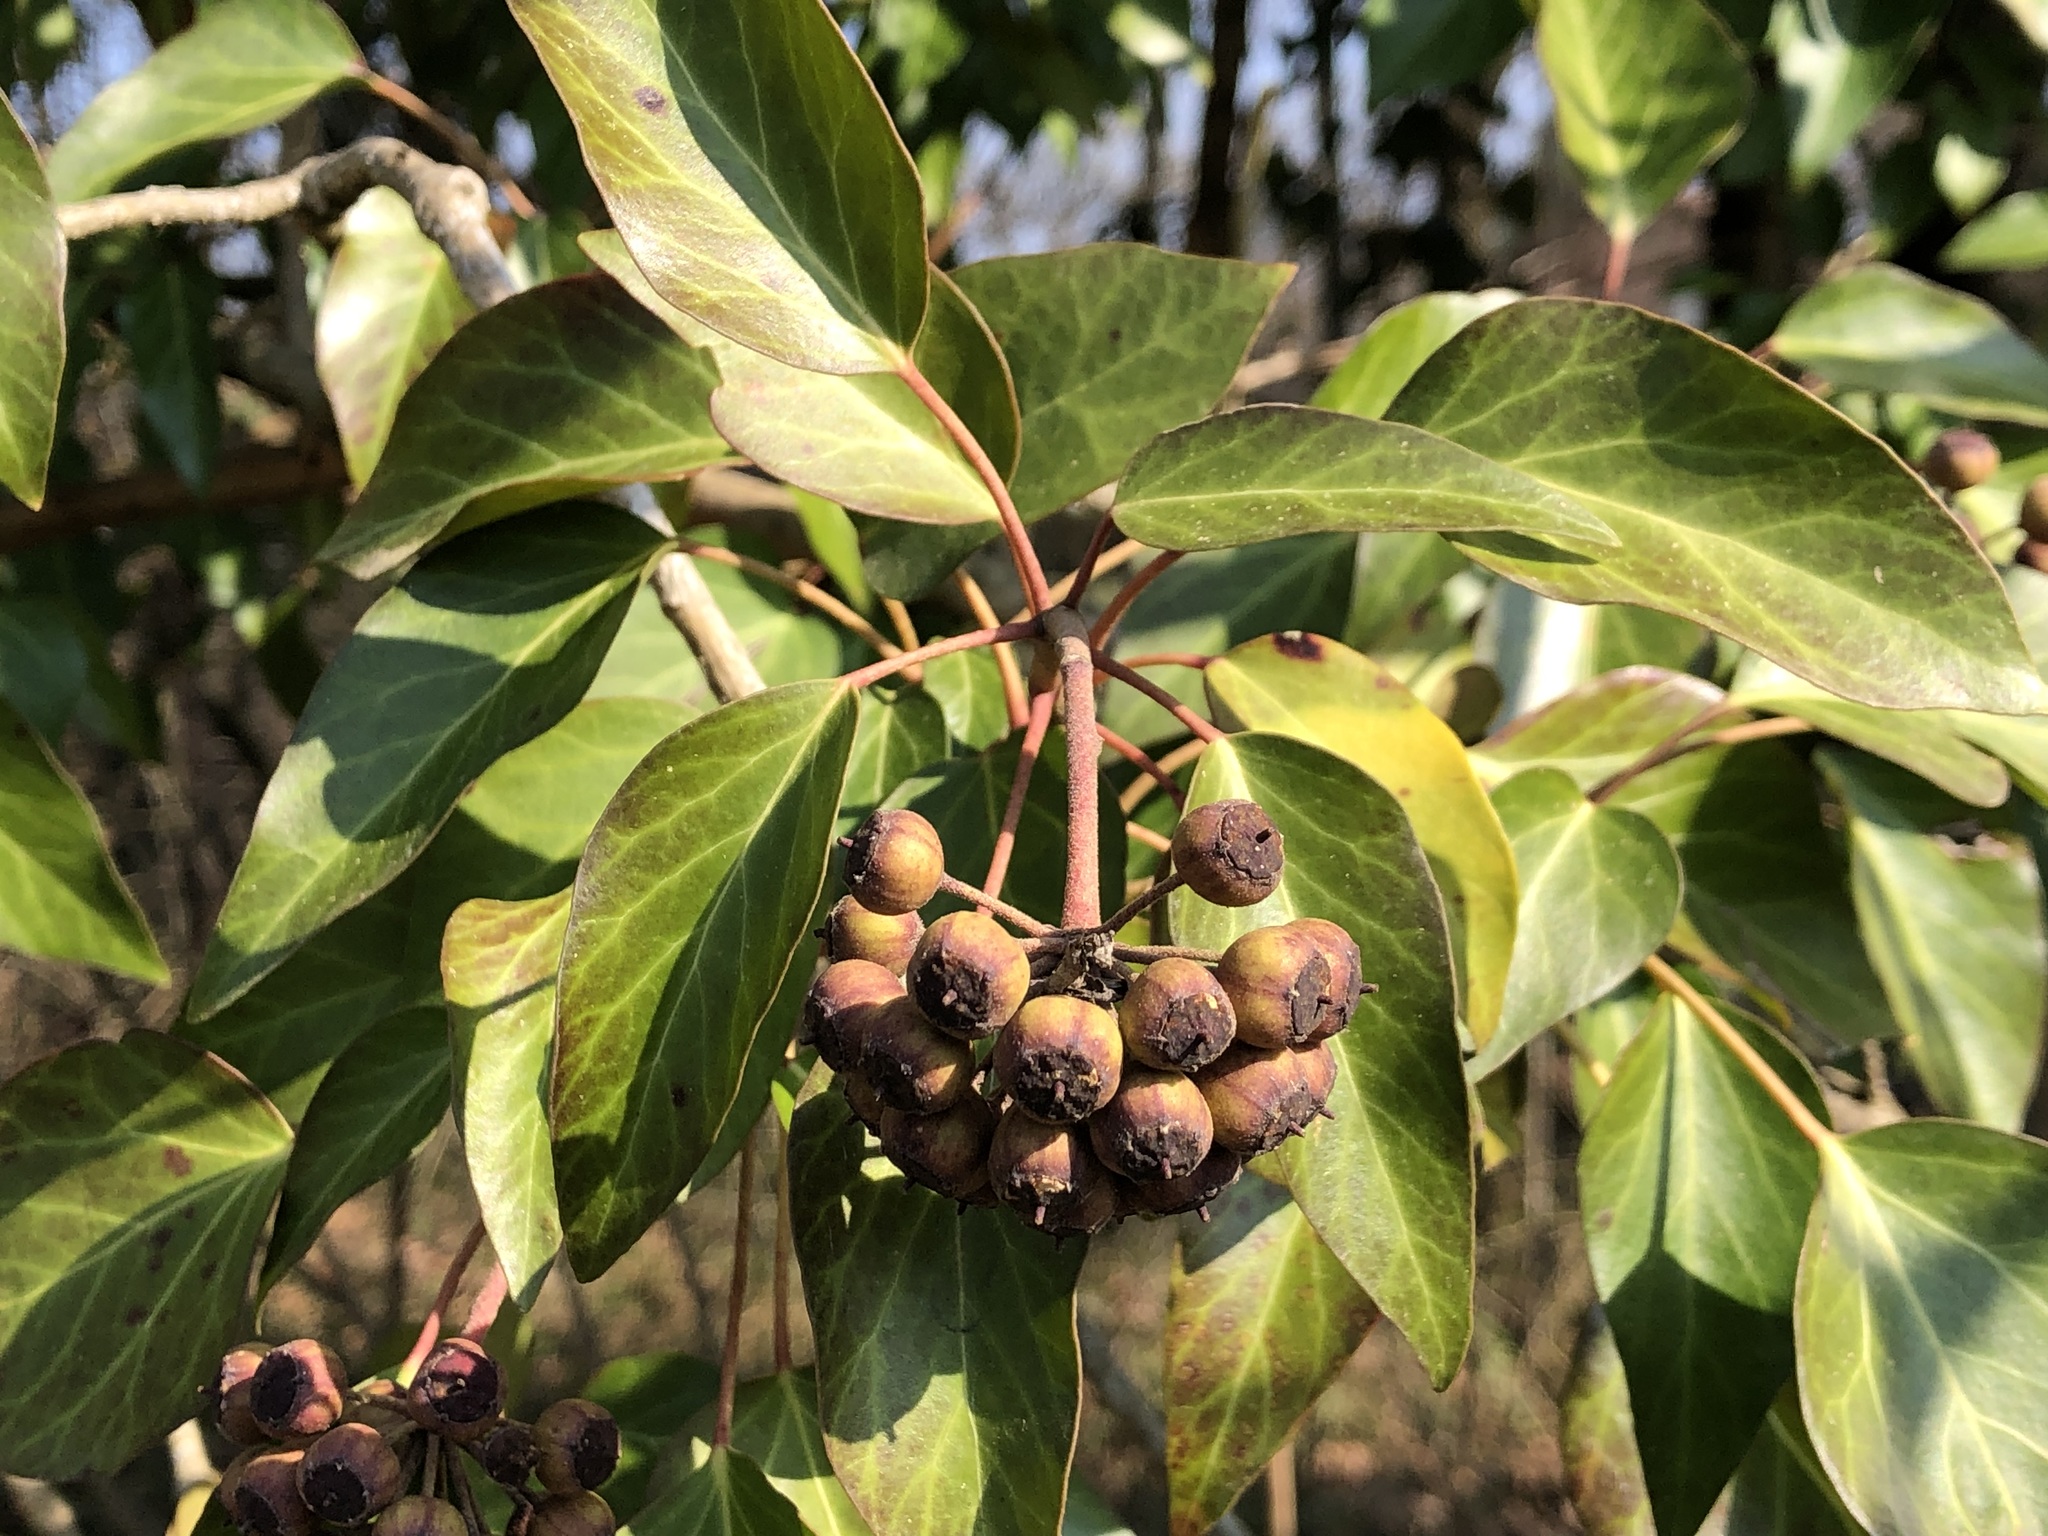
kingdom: Plantae
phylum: Tracheophyta
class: Magnoliopsida
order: Apiales
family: Araliaceae
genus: Hedera
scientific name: Hedera helix
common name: Ivy
